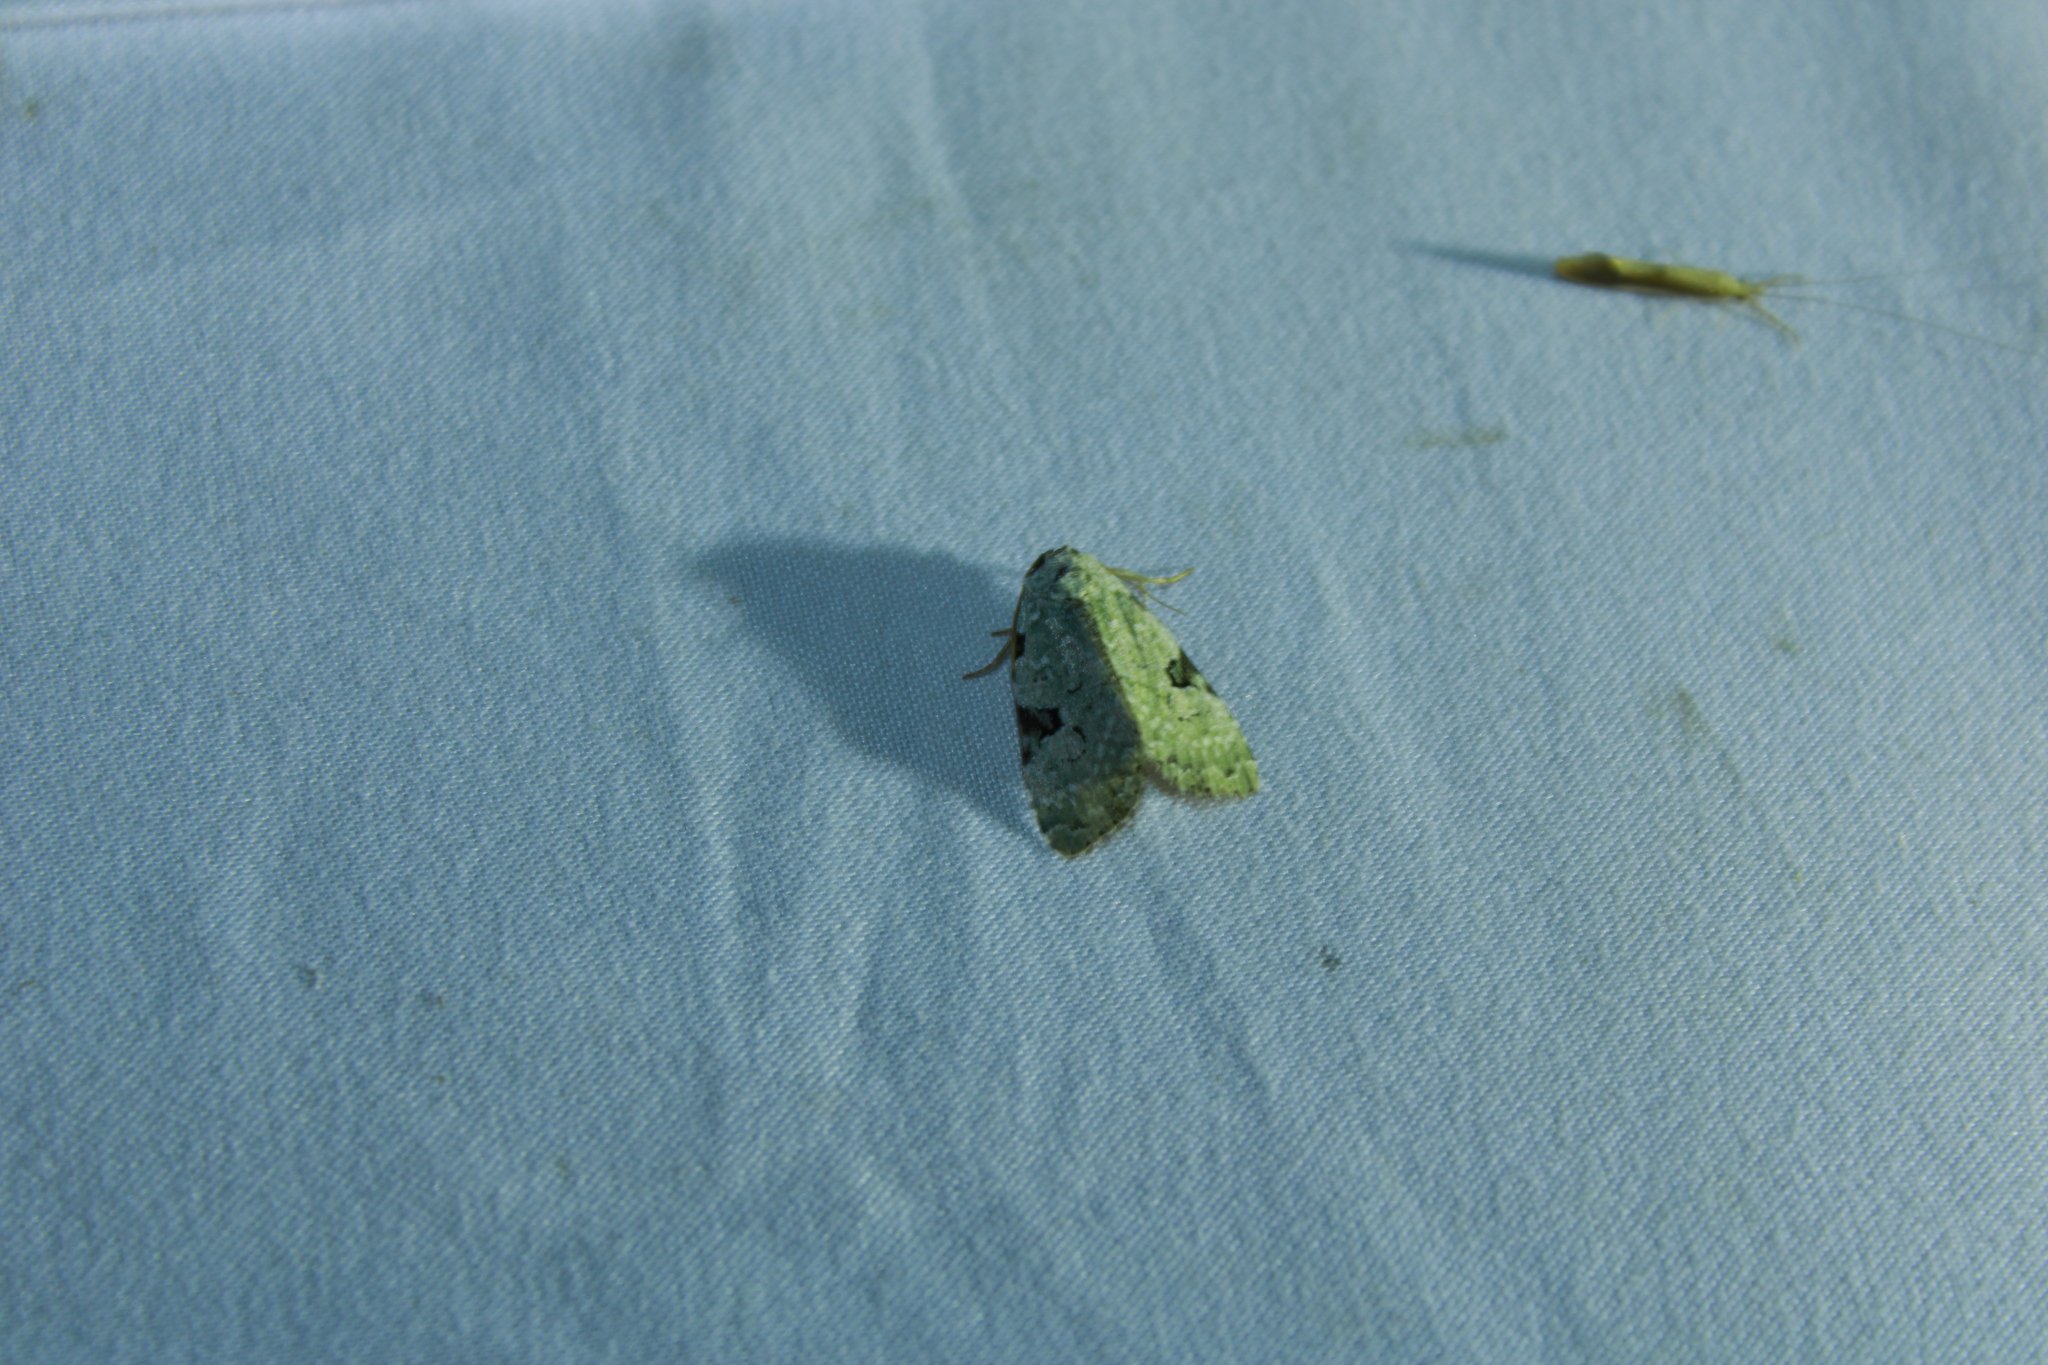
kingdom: Animalia
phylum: Arthropoda
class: Insecta
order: Lepidoptera
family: Noctuidae
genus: Leuconycta
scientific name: Leuconycta diphteroides
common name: Green leuconycta moth
